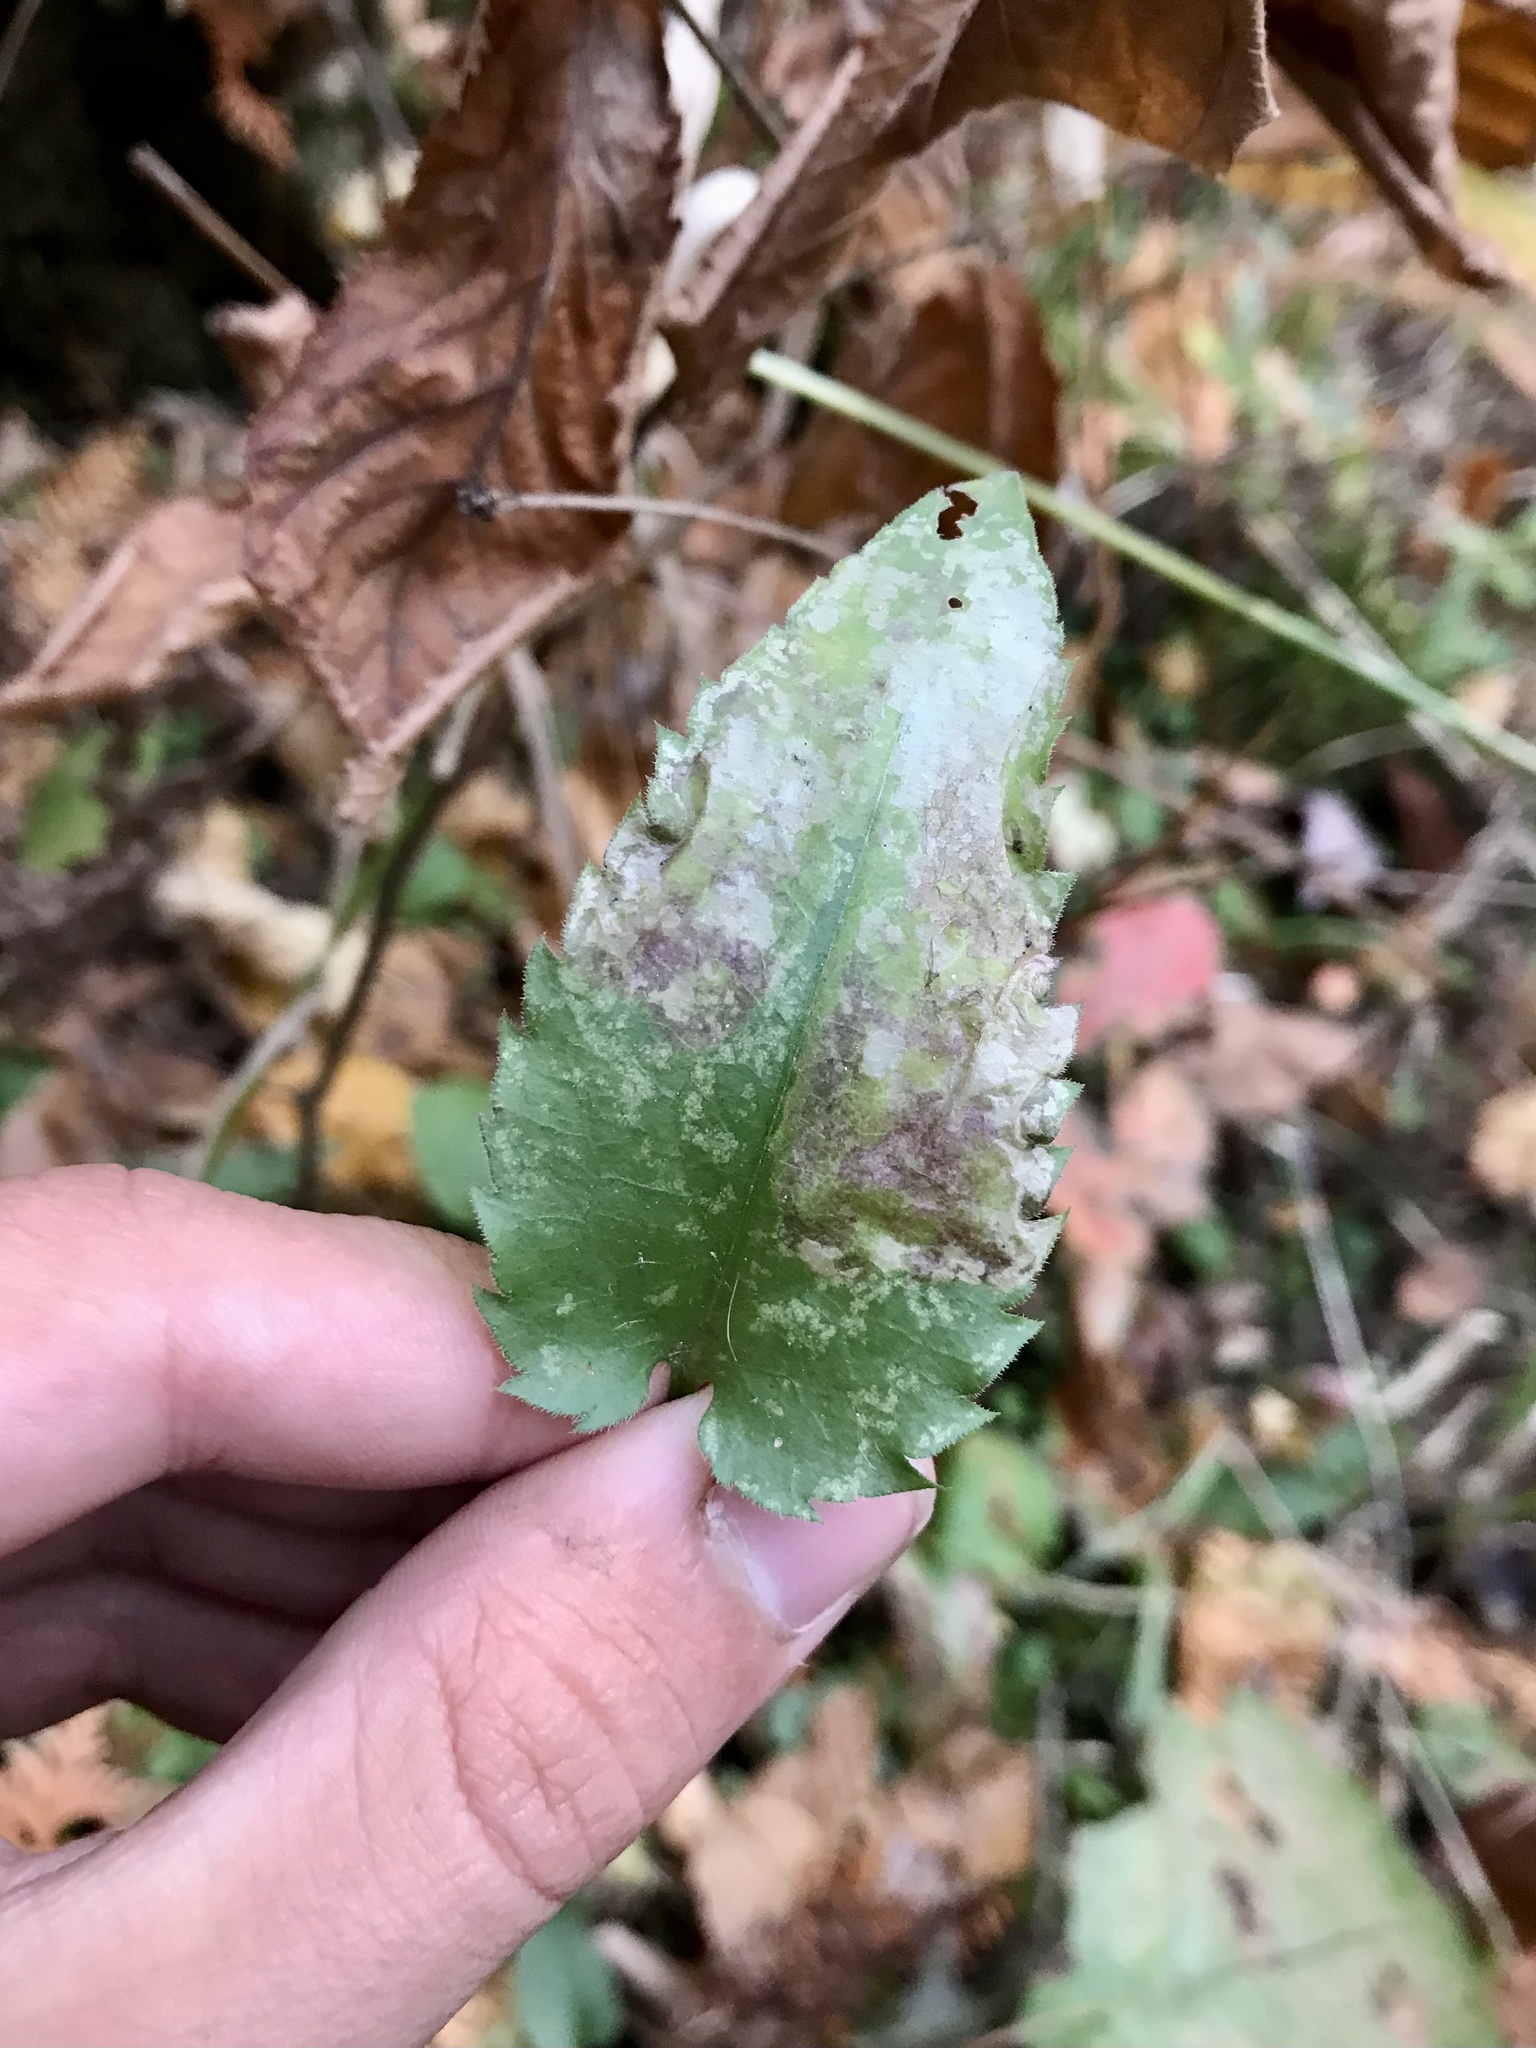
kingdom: Animalia
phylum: Arthropoda
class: Insecta
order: Lepidoptera
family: Gracillariidae
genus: Acrocercops
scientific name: Acrocercops astericola
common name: Aster tentiform blotchminer
